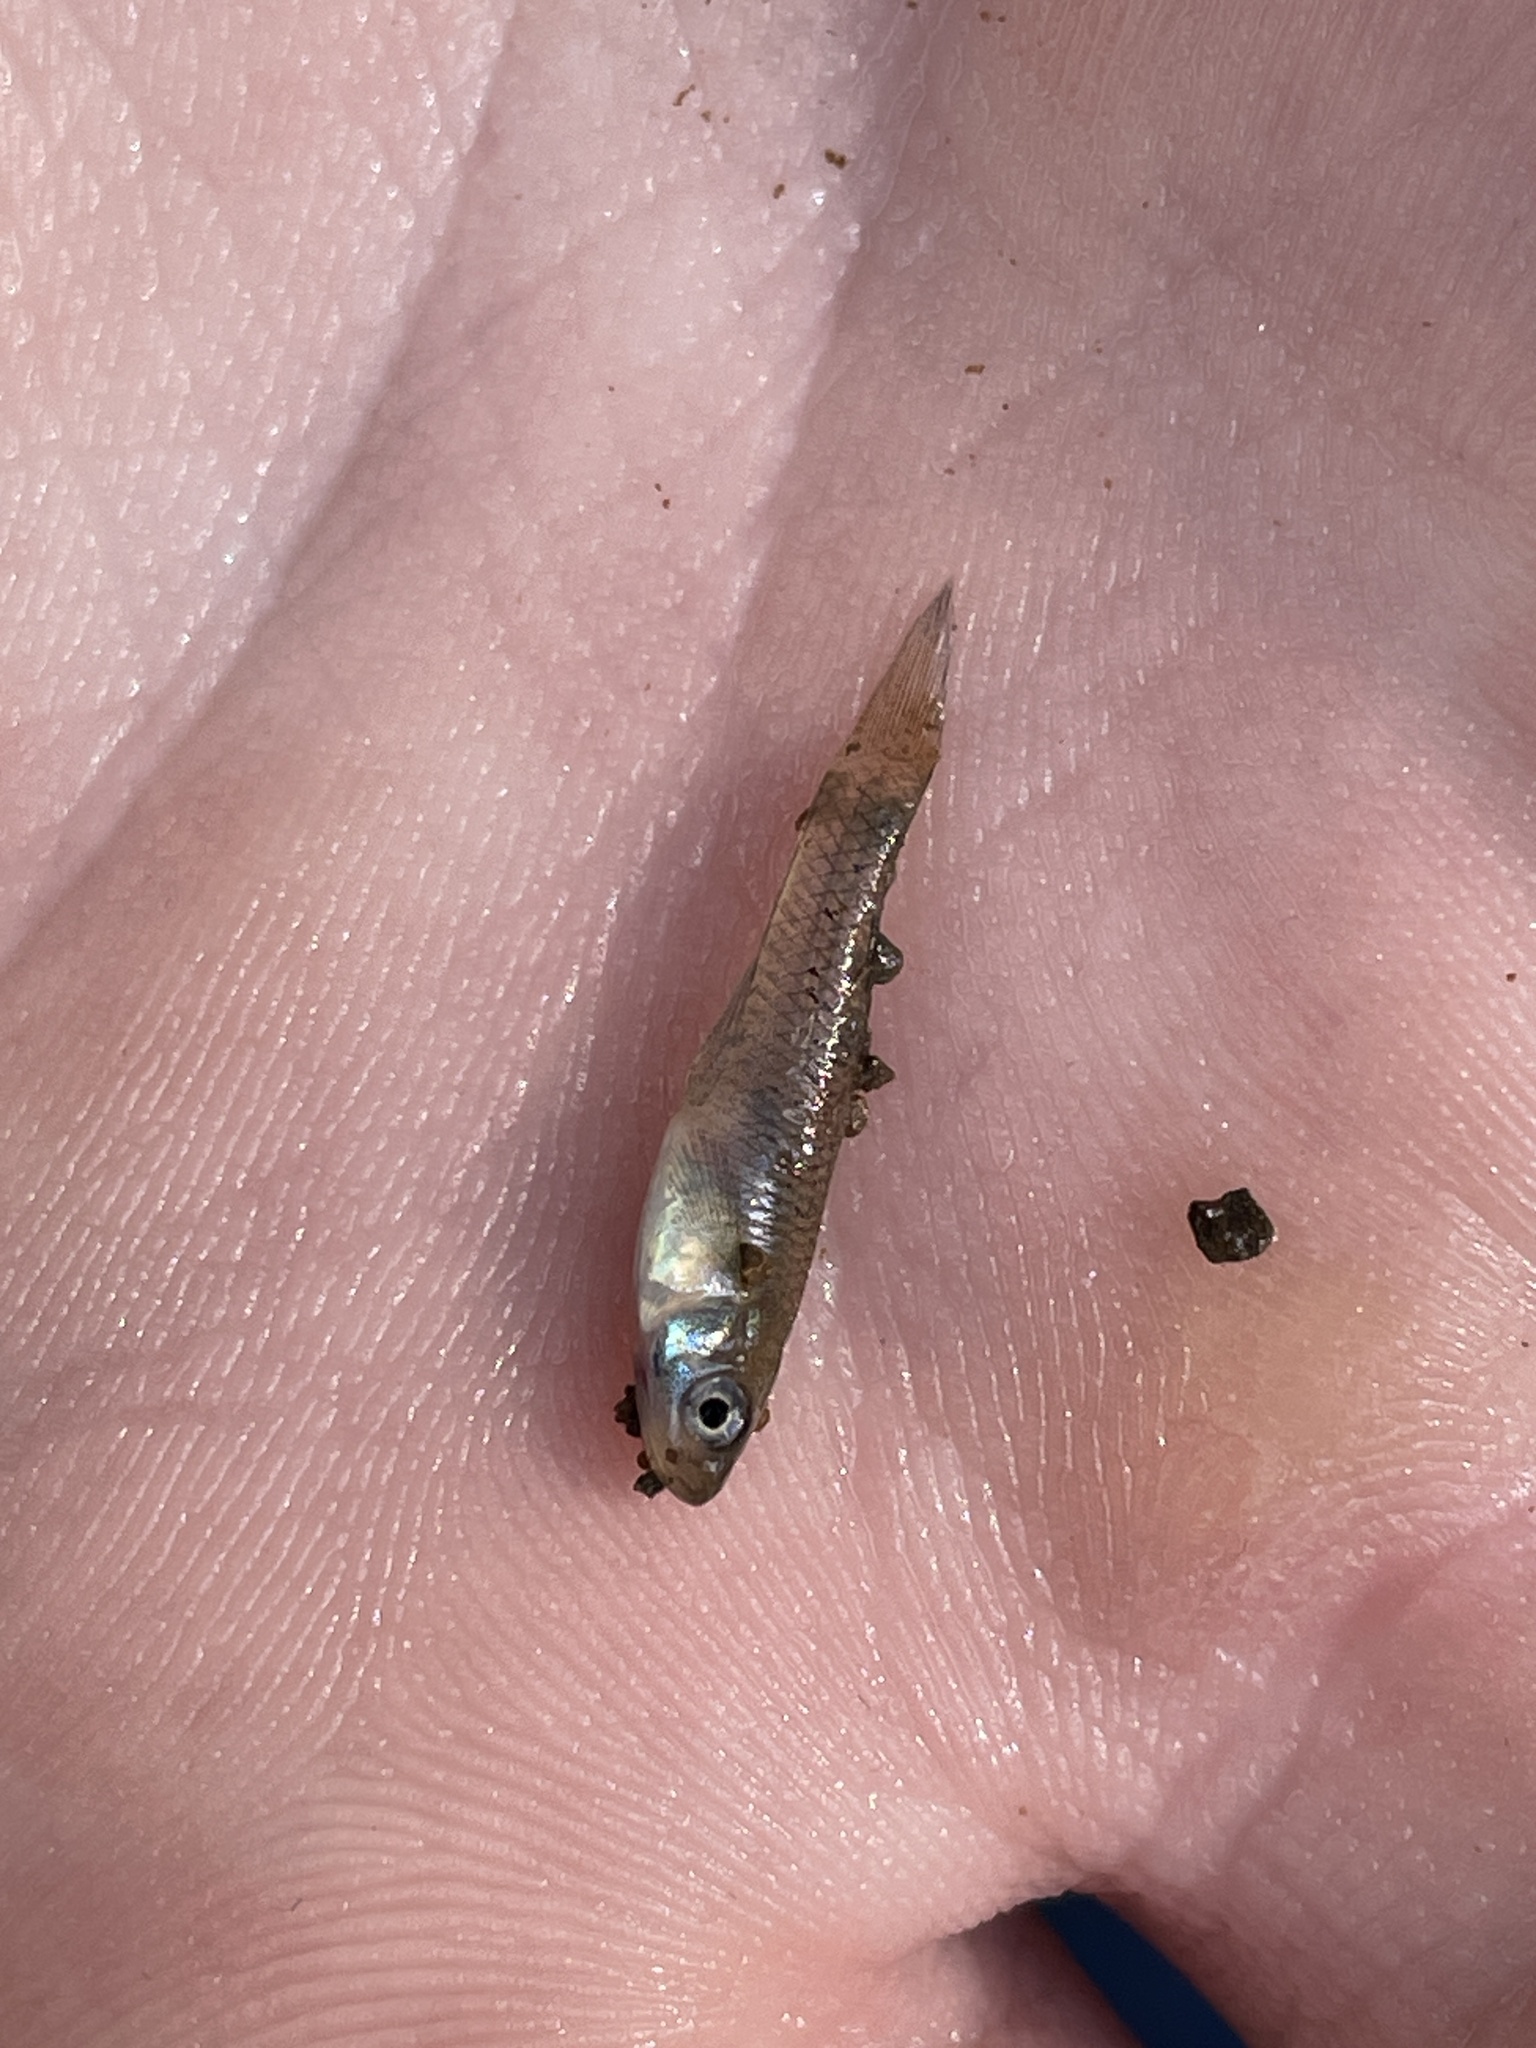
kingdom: Animalia
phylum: Chordata
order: Cyprinodontiformes
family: Poeciliidae
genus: Gambusia
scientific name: Gambusia affinis
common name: Mosquitofish
